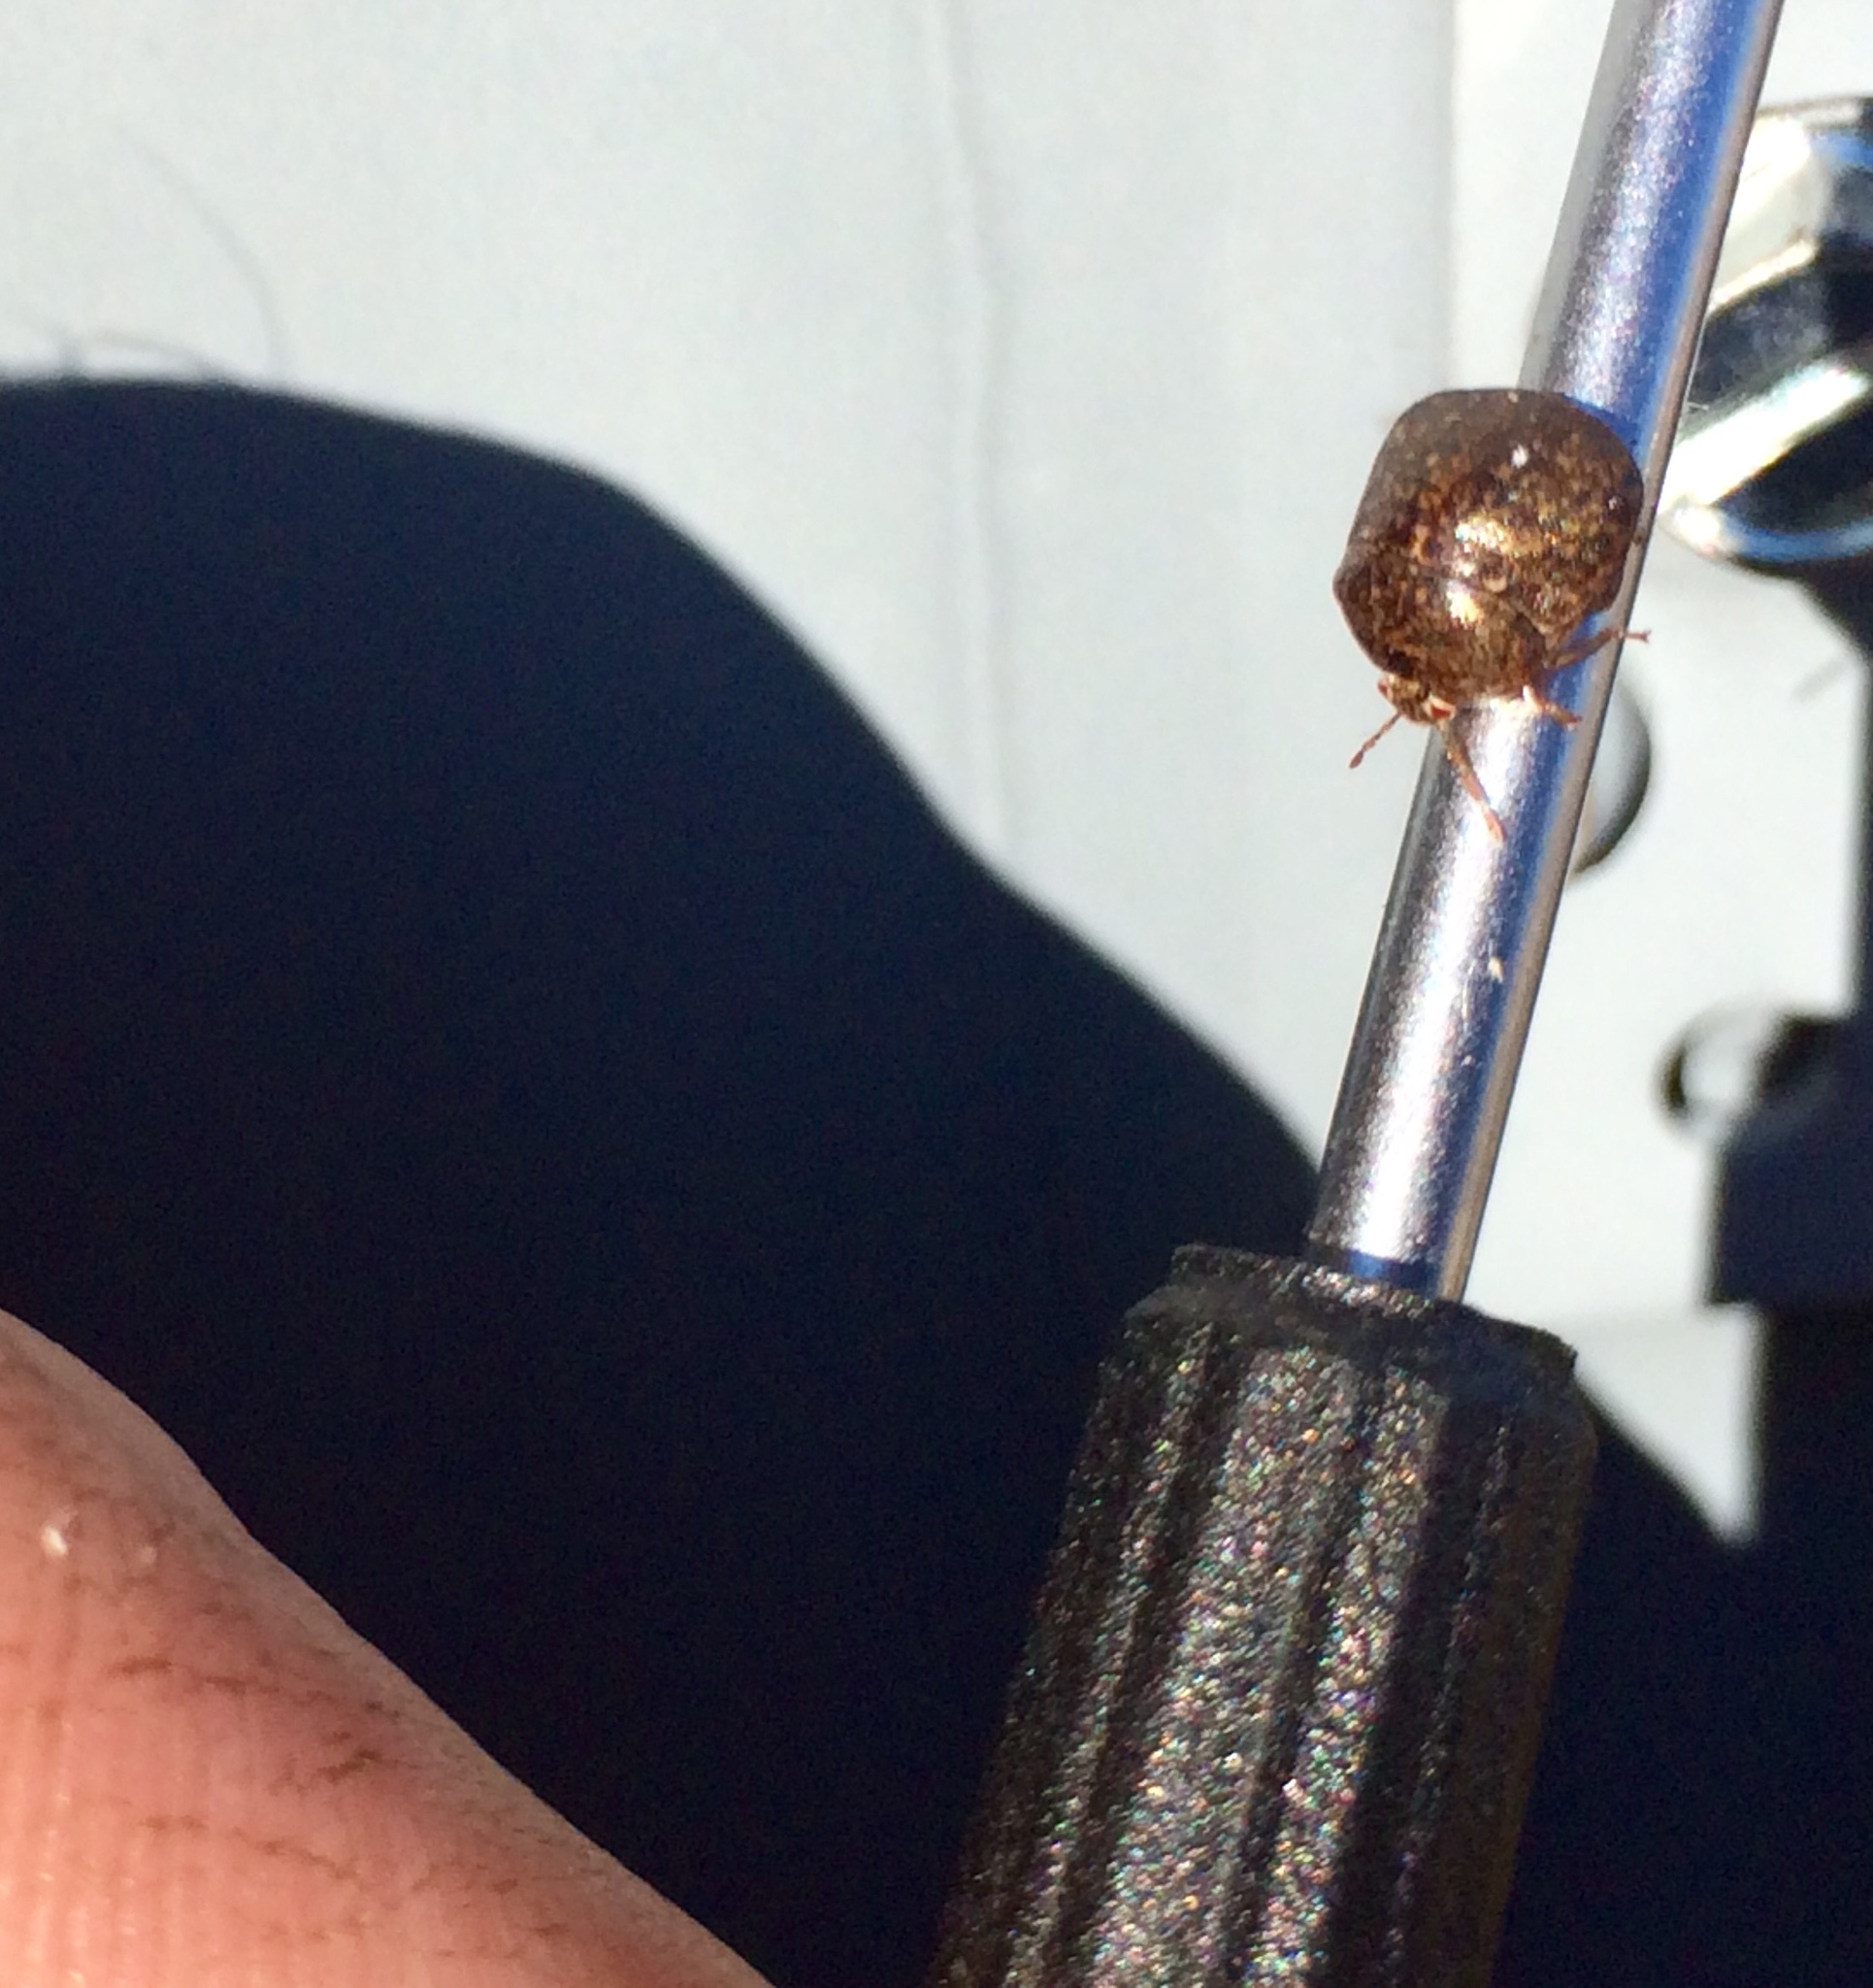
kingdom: Animalia
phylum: Arthropoda
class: Insecta
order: Hemiptera
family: Plataspidae
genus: Megacopta
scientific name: Megacopta cribraria
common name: Bean plataspid
